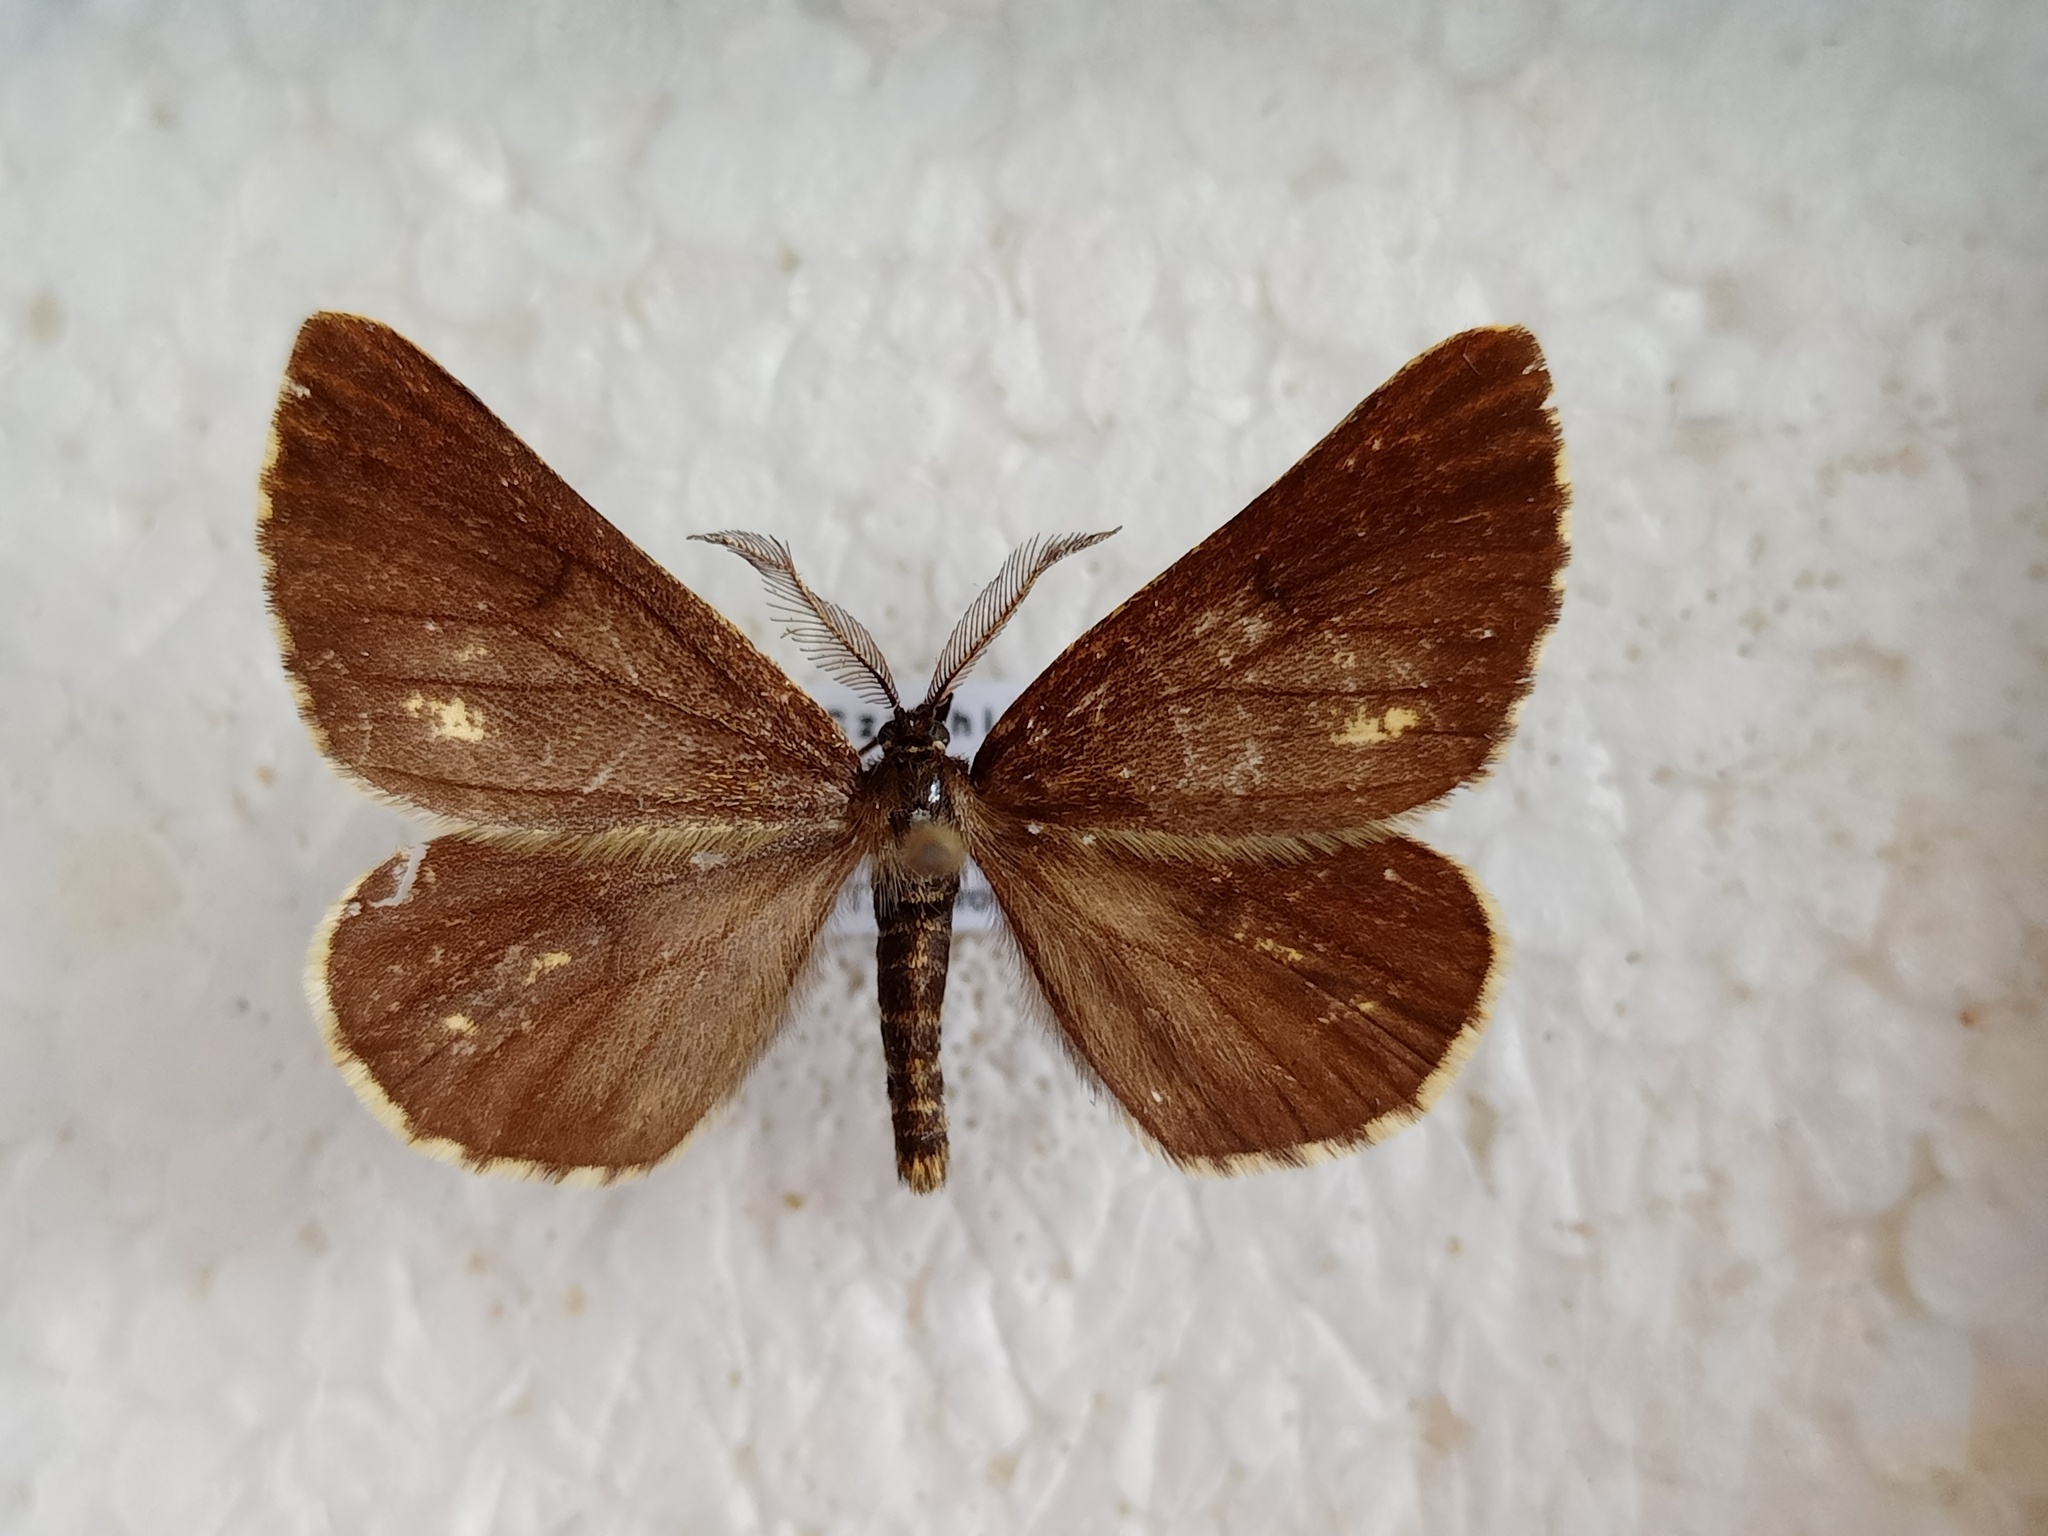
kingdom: Animalia
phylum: Arthropoda
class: Insecta
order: Lepidoptera
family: Geometridae
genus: Bupalus
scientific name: Bupalus piniaria
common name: Bordered white
